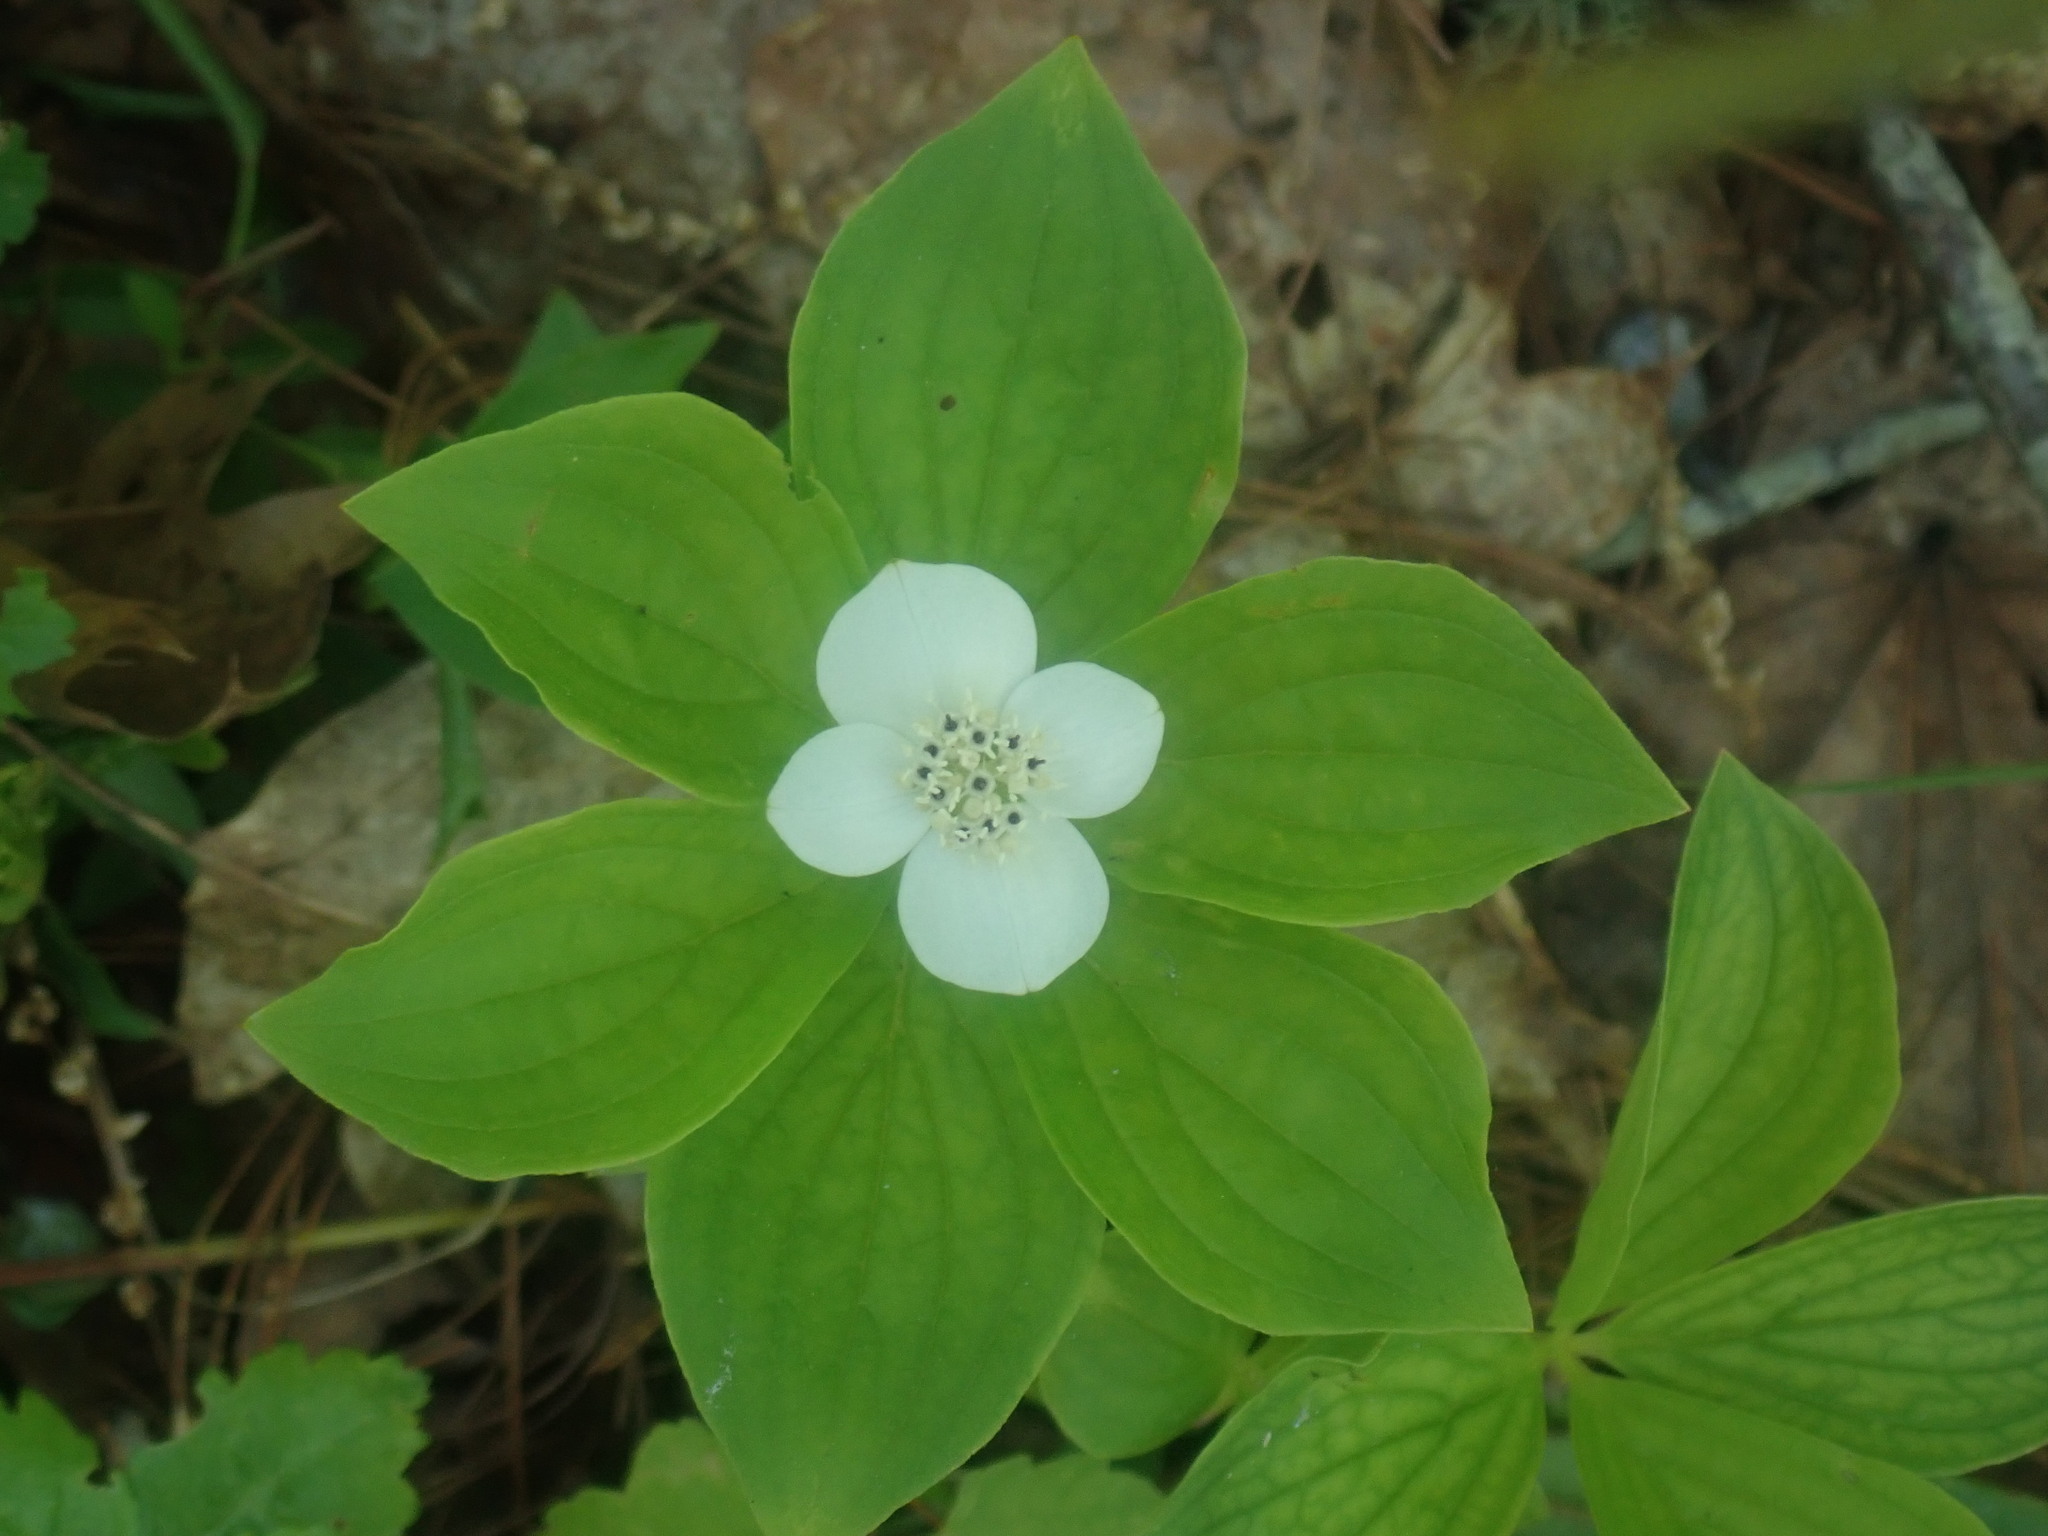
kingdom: Plantae
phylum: Tracheophyta
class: Magnoliopsida
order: Cornales
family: Cornaceae
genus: Cornus
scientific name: Cornus canadensis
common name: Creeping dogwood
